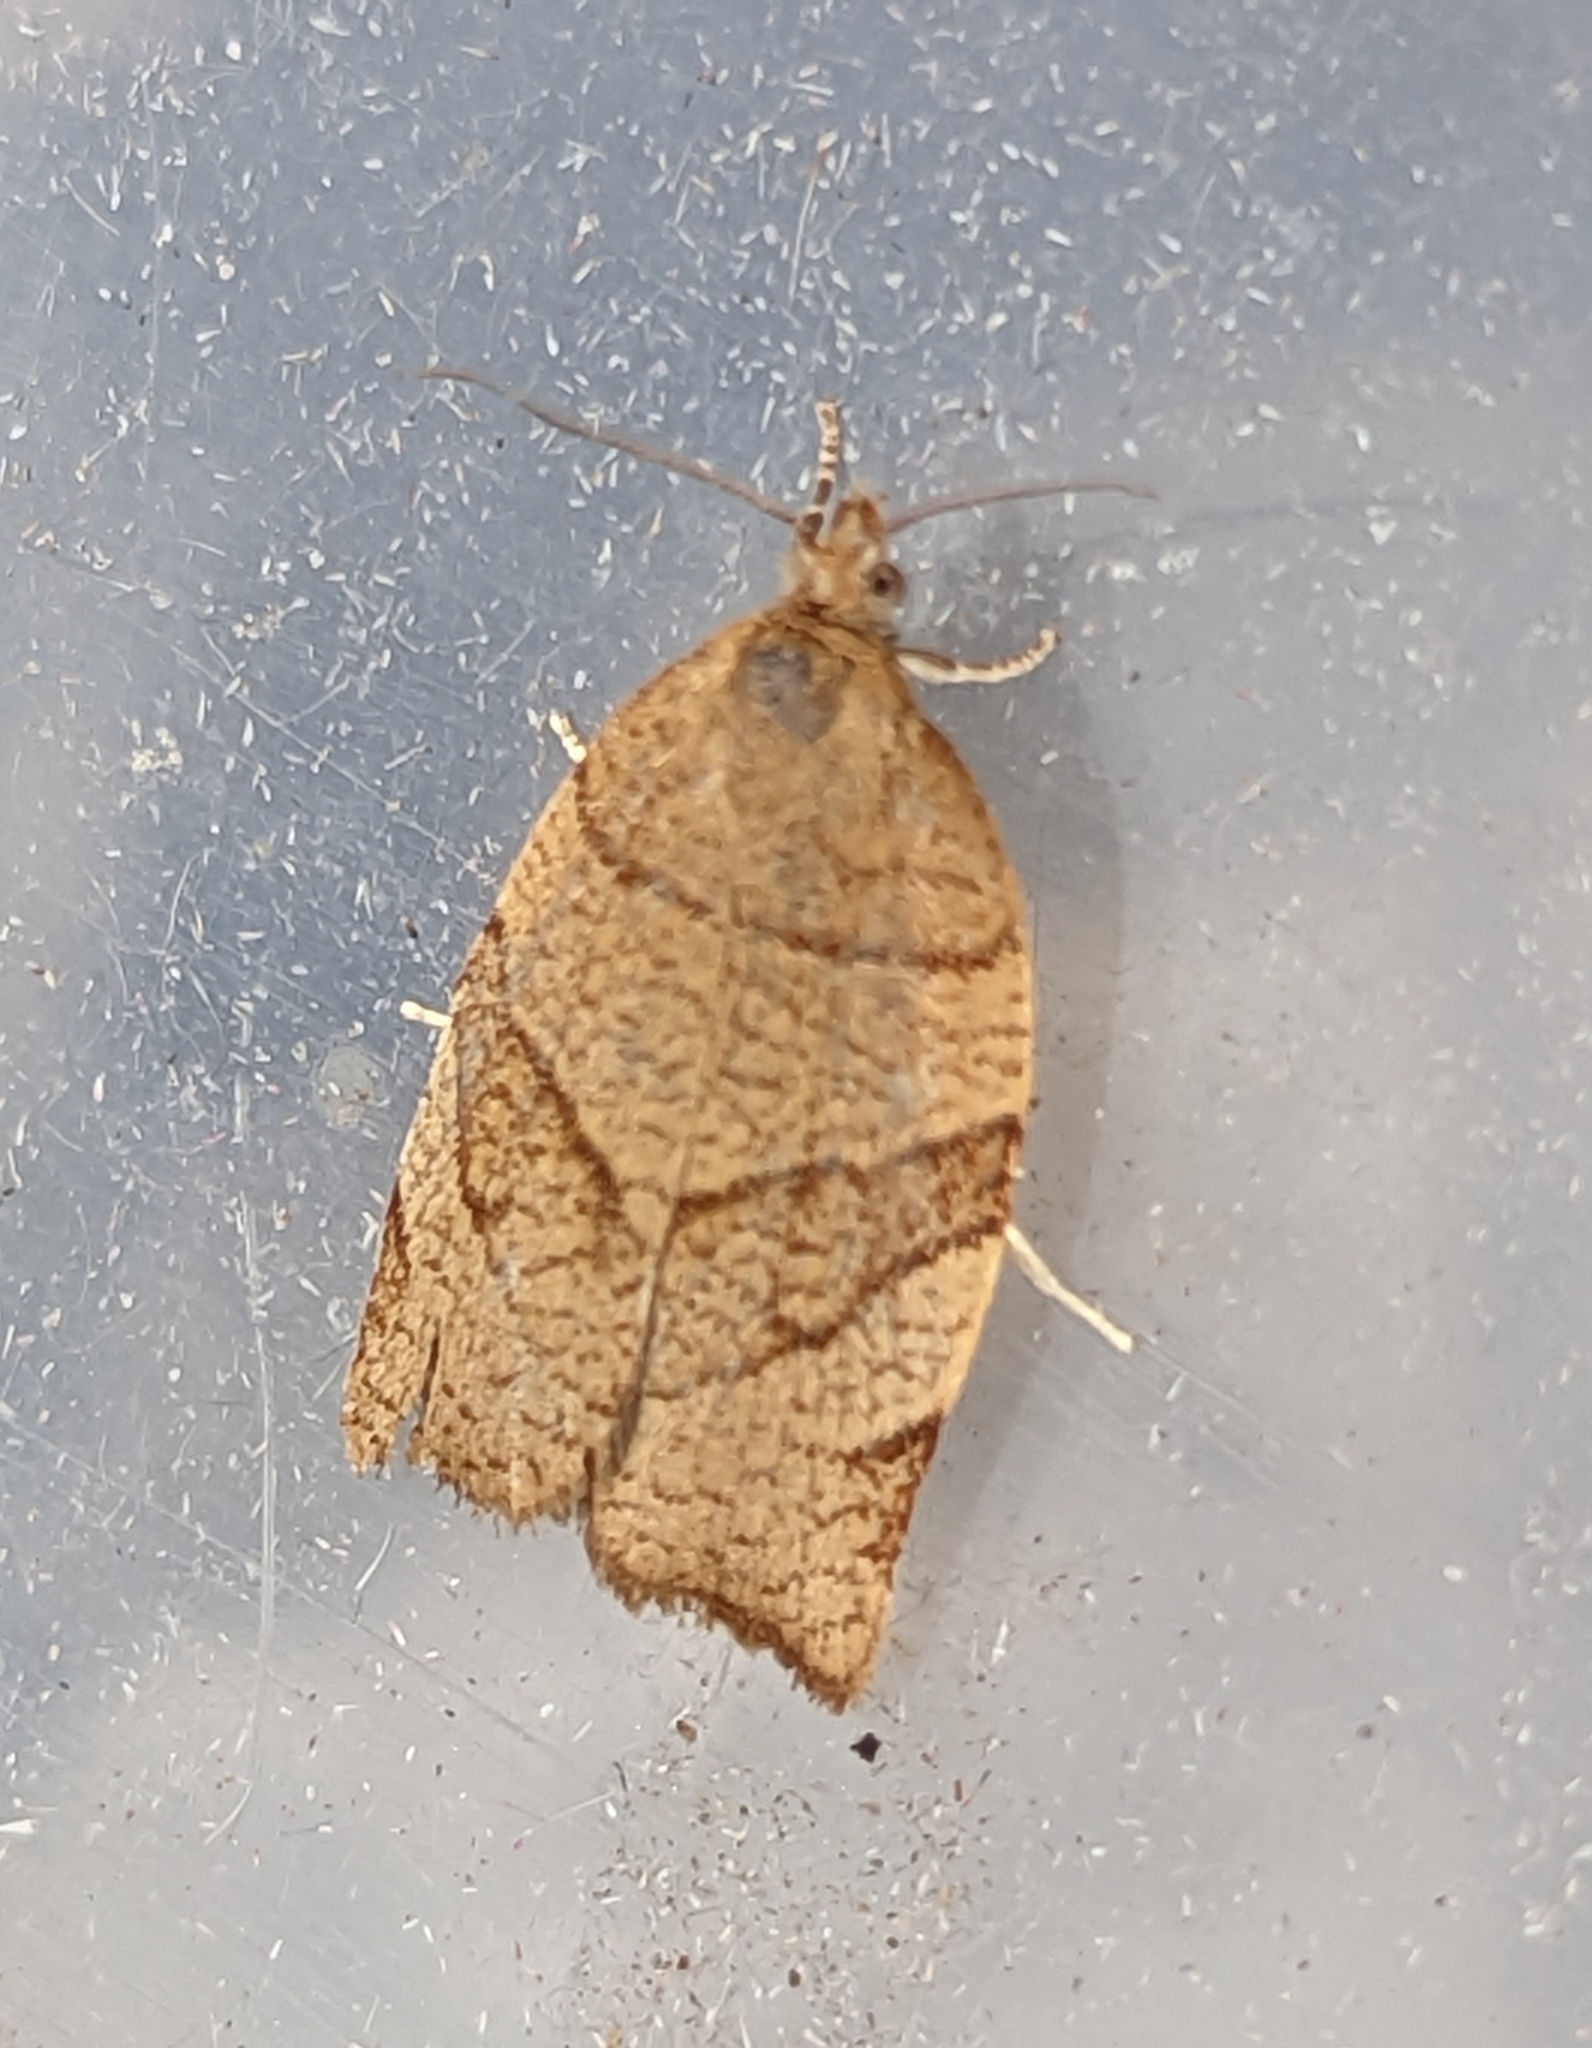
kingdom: Animalia
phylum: Arthropoda
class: Insecta
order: Lepidoptera
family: Tortricidae
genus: Pandemis
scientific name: Pandemis cerasana
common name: Barred fruit-tree tortrix
